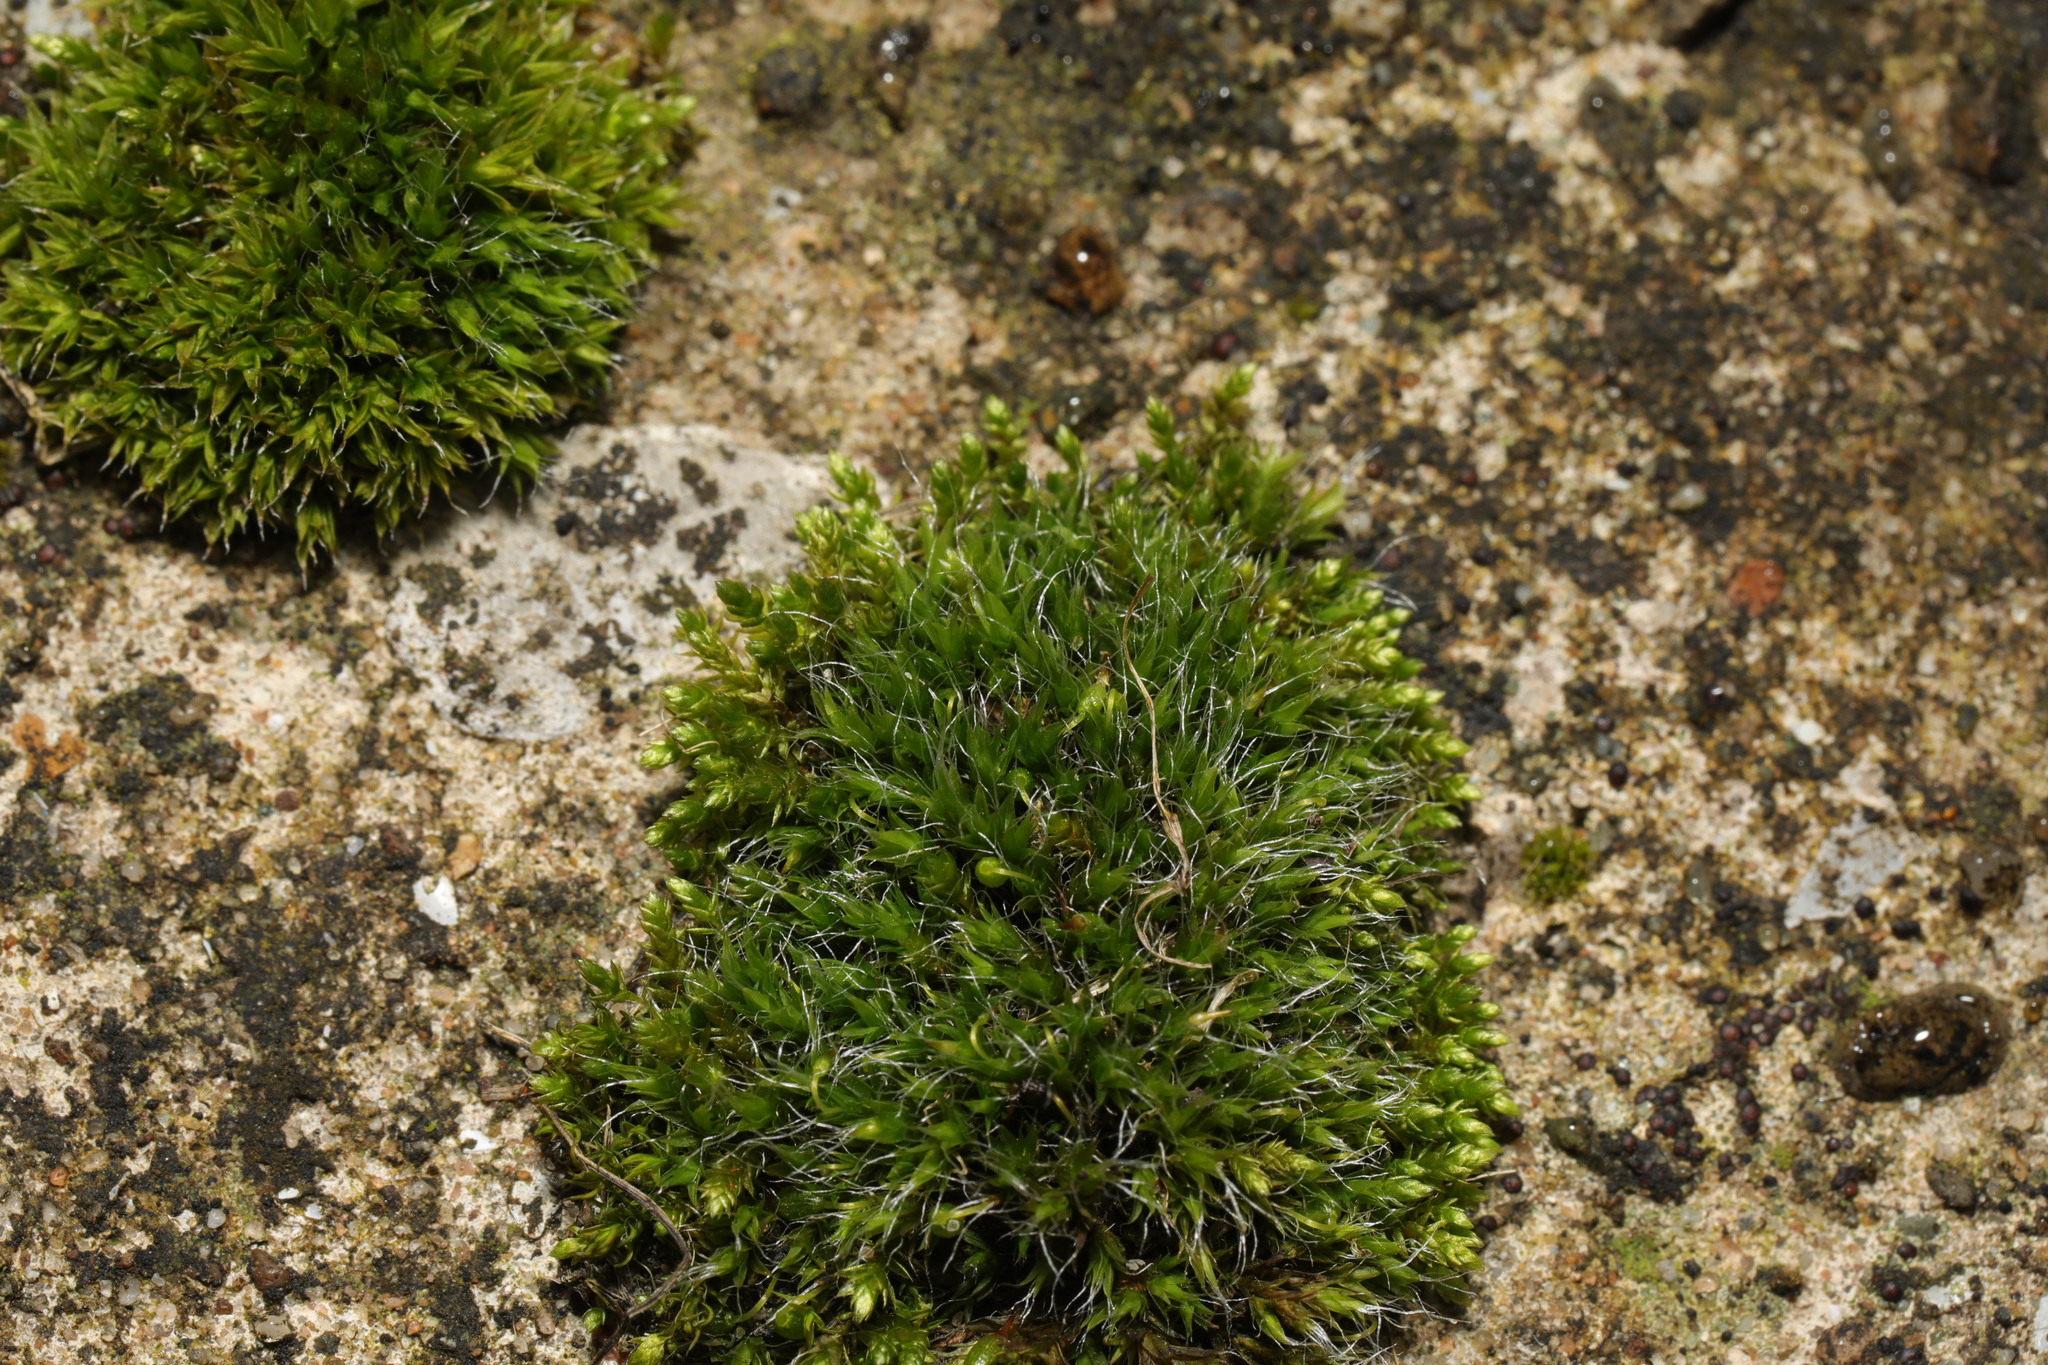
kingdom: Plantae
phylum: Bryophyta
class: Bryopsida
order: Grimmiales
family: Grimmiaceae
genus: Grimmia
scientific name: Grimmia pulvinata
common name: Grey-cushioned grimmia
